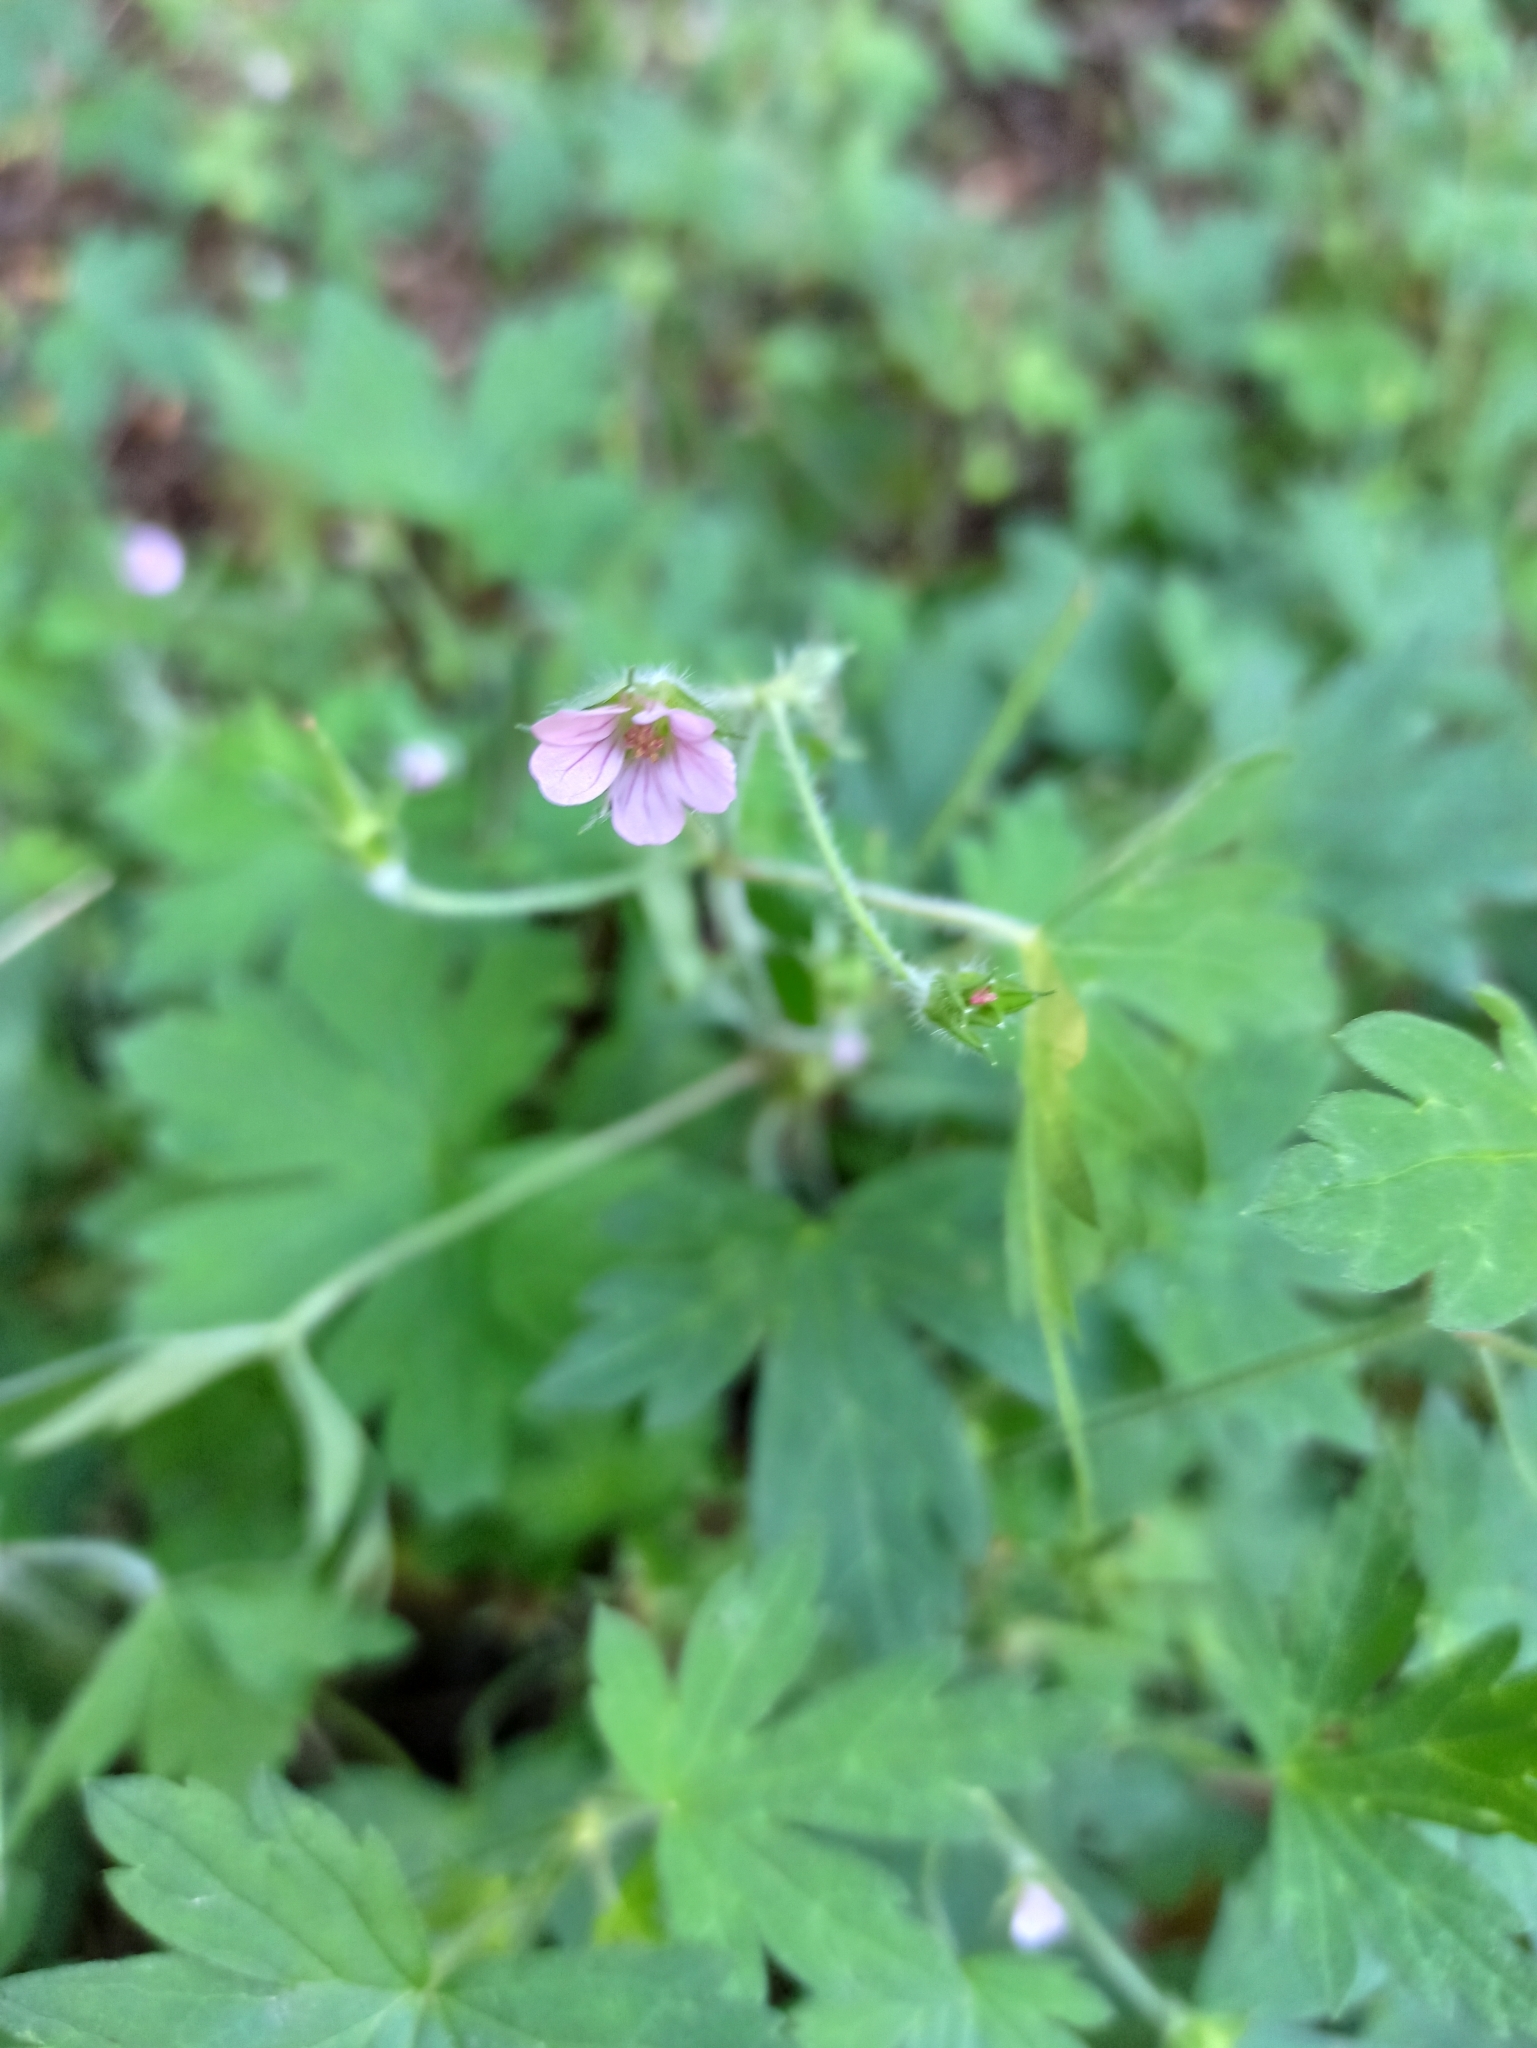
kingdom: Plantae
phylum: Tracheophyta
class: Magnoliopsida
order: Geraniales
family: Geraniaceae
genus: Geranium
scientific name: Geranium sibiricum
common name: Siberian crane's-bill
